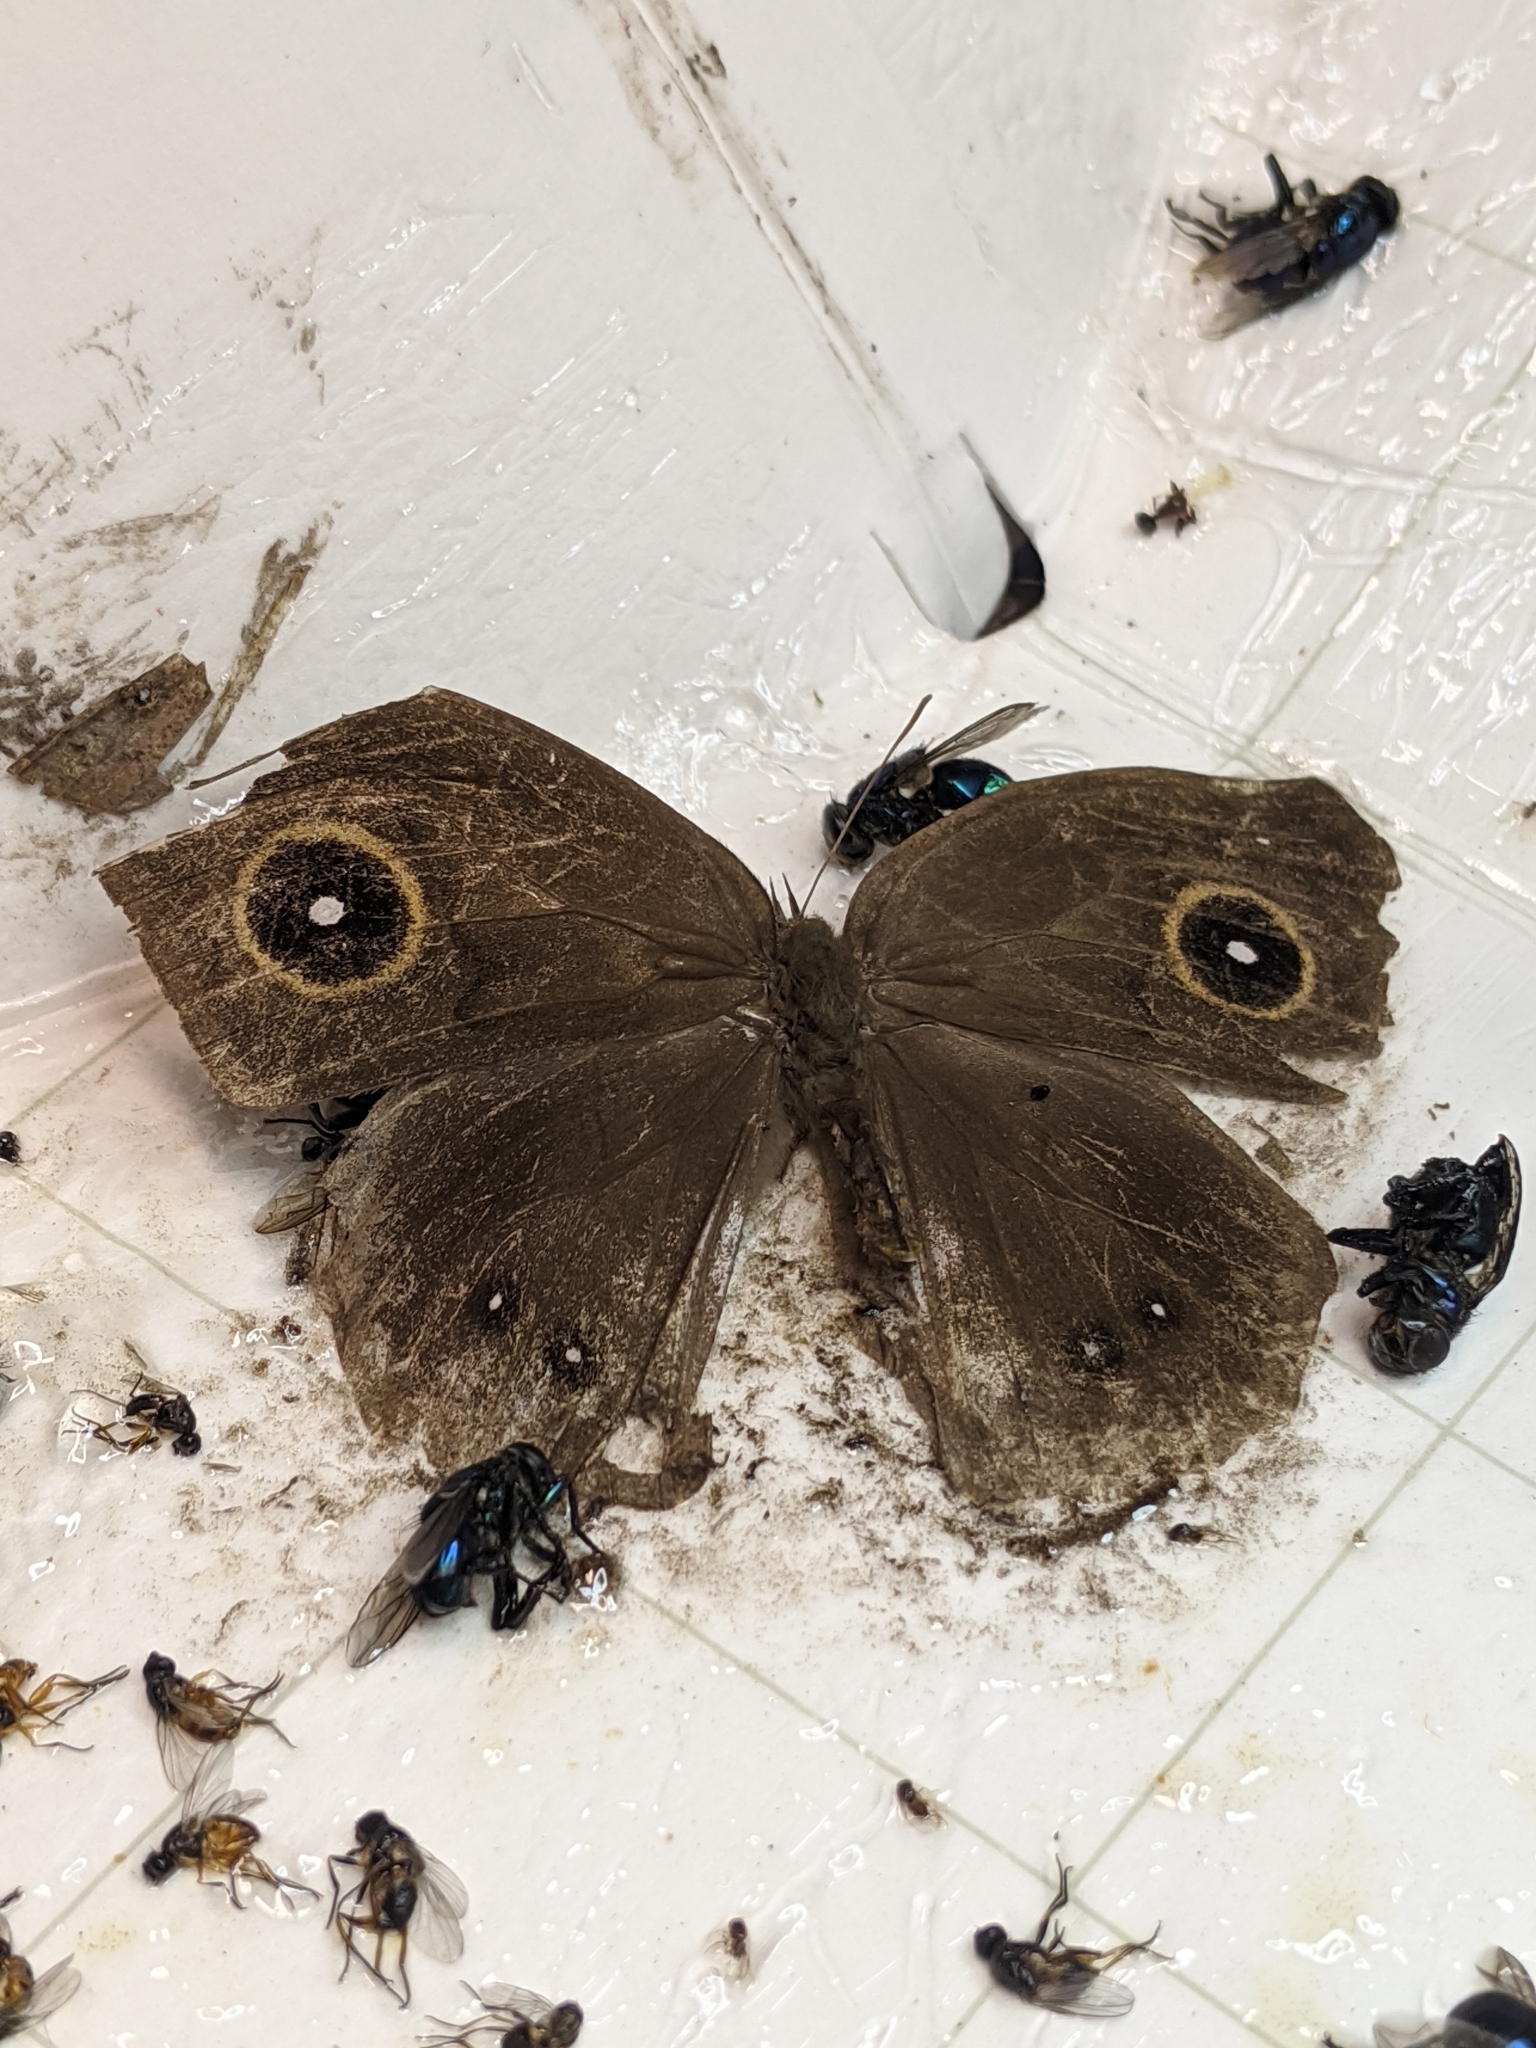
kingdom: Animalia
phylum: Arthropoda
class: Insecta
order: Lepidoptera
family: Nymphalidae
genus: Mycalesis
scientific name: Mycalesis horsfieldii
